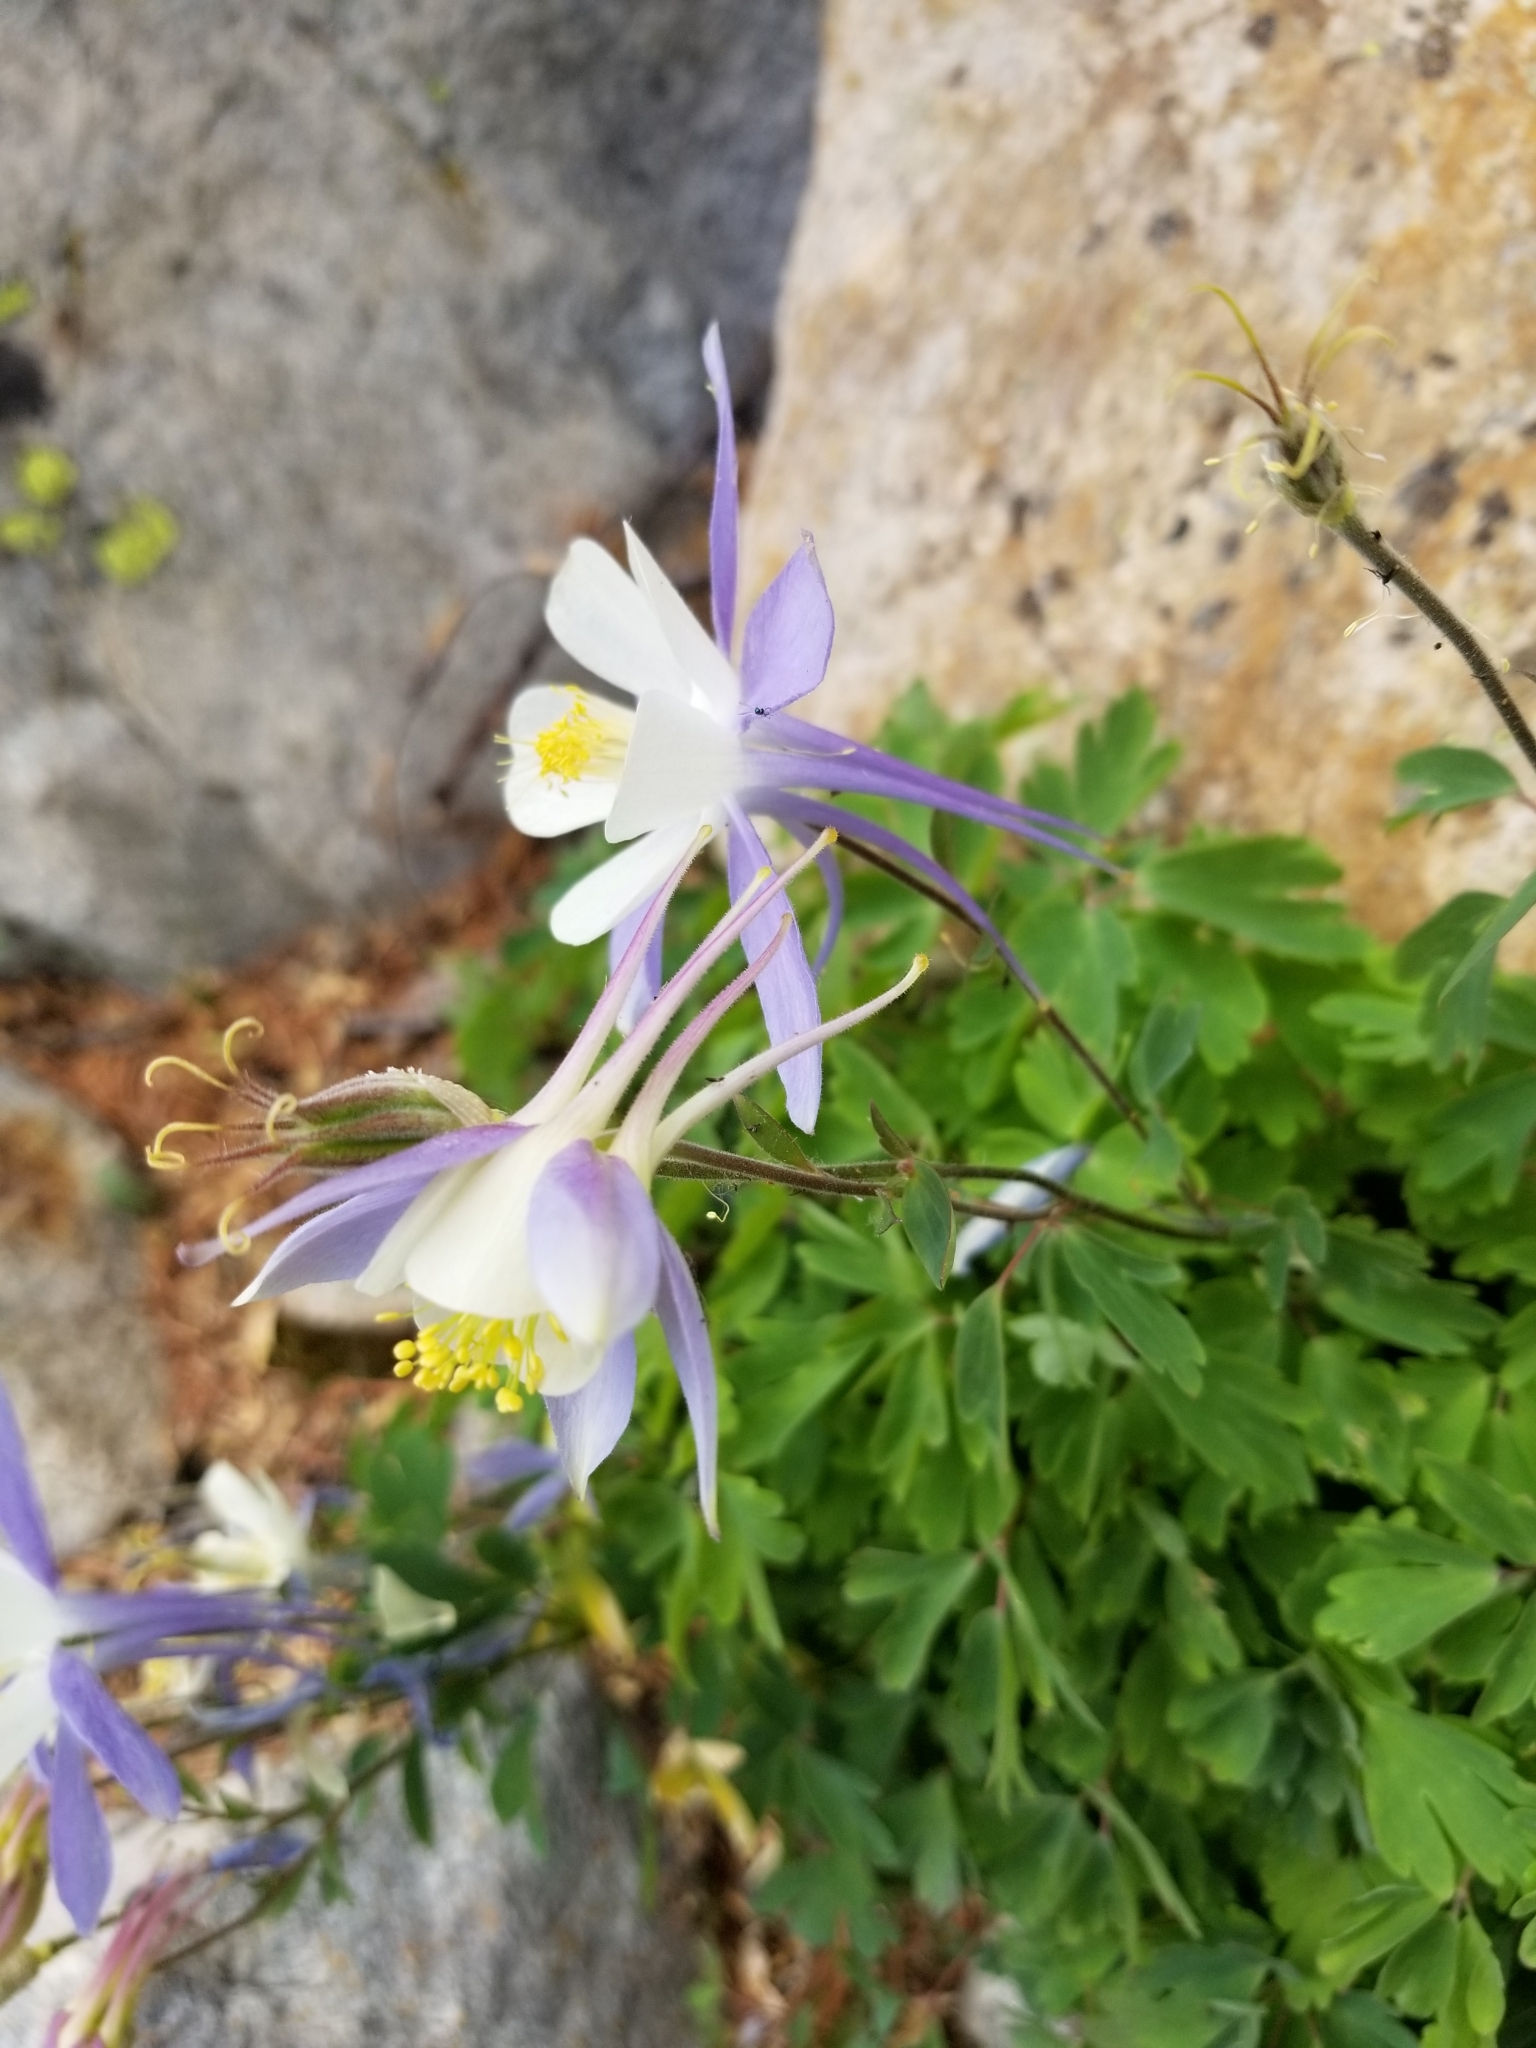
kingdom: Plantae
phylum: Tracheophyta
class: Magnoliopsida
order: Ranunculales
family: Ranunculaceae
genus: Aquilegia
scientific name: Aquilegia coerulea
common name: Rocky mountain columbine
